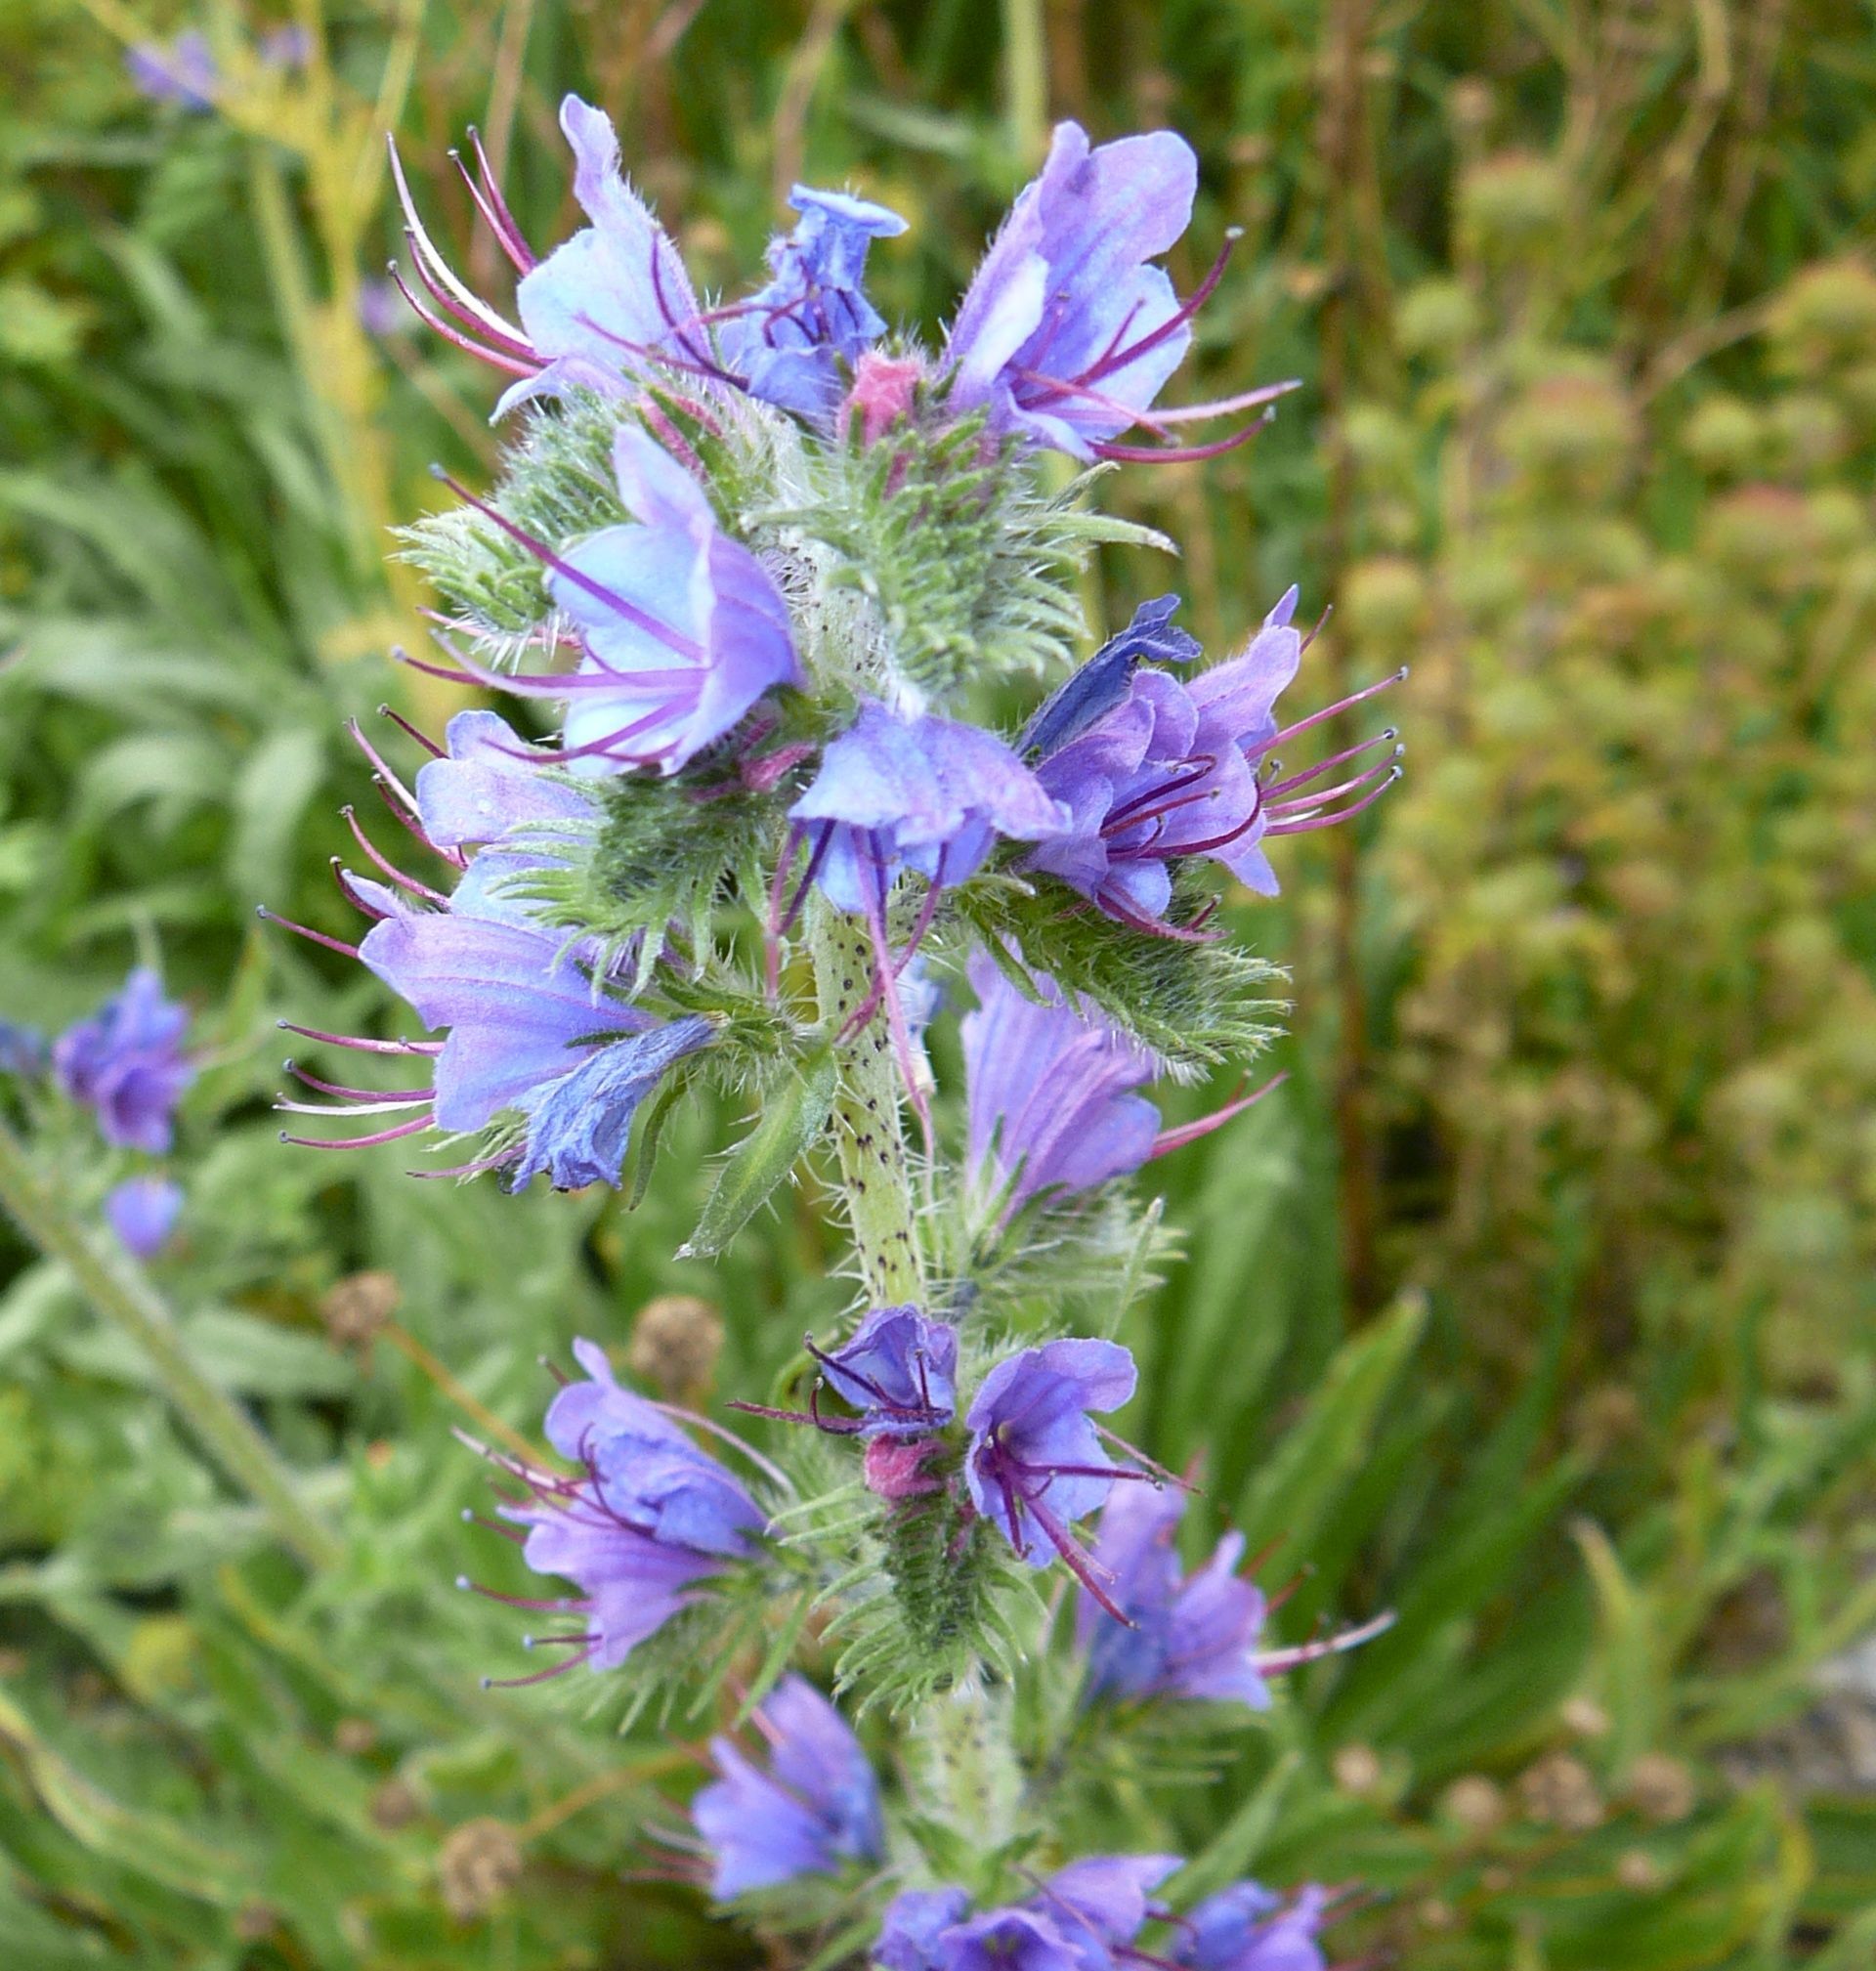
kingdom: Plantae
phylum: Tracheophyta
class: Magnoliopsida
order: Boraginales
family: Boraginaceae
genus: Echium
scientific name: Echium vulgare
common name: Common viper's bugloss
